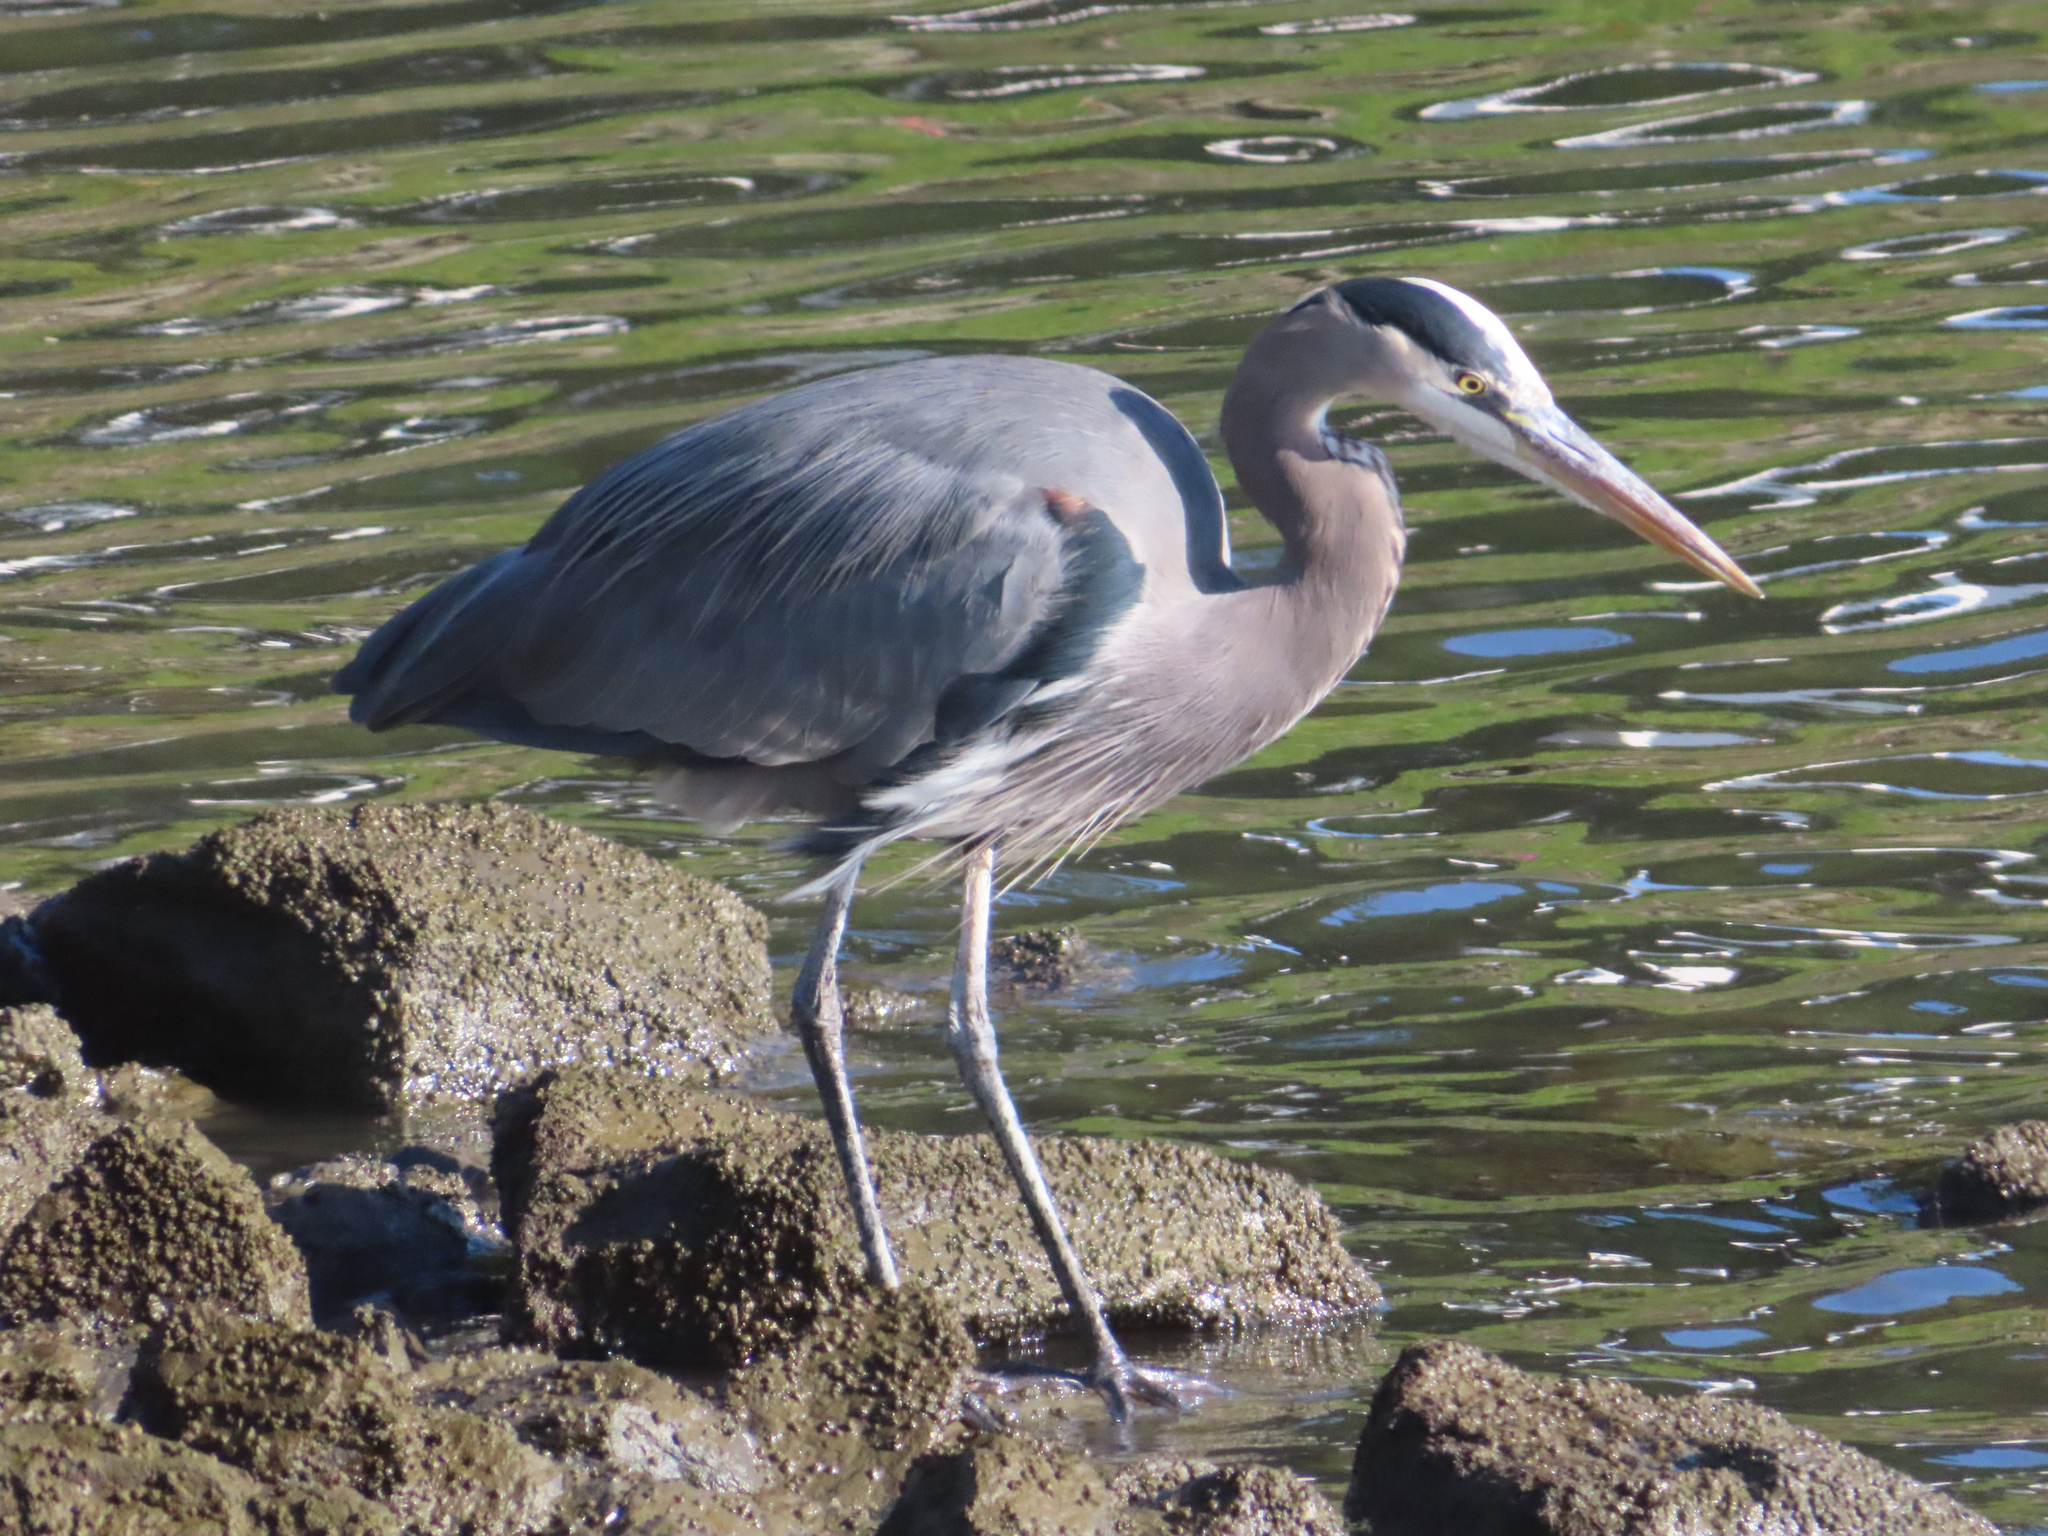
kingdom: Animalia
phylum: Chordata
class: Aves
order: Pelecaniformes
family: Ardeidae
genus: Ardea
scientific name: Ardea herodias
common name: Great blue heron
